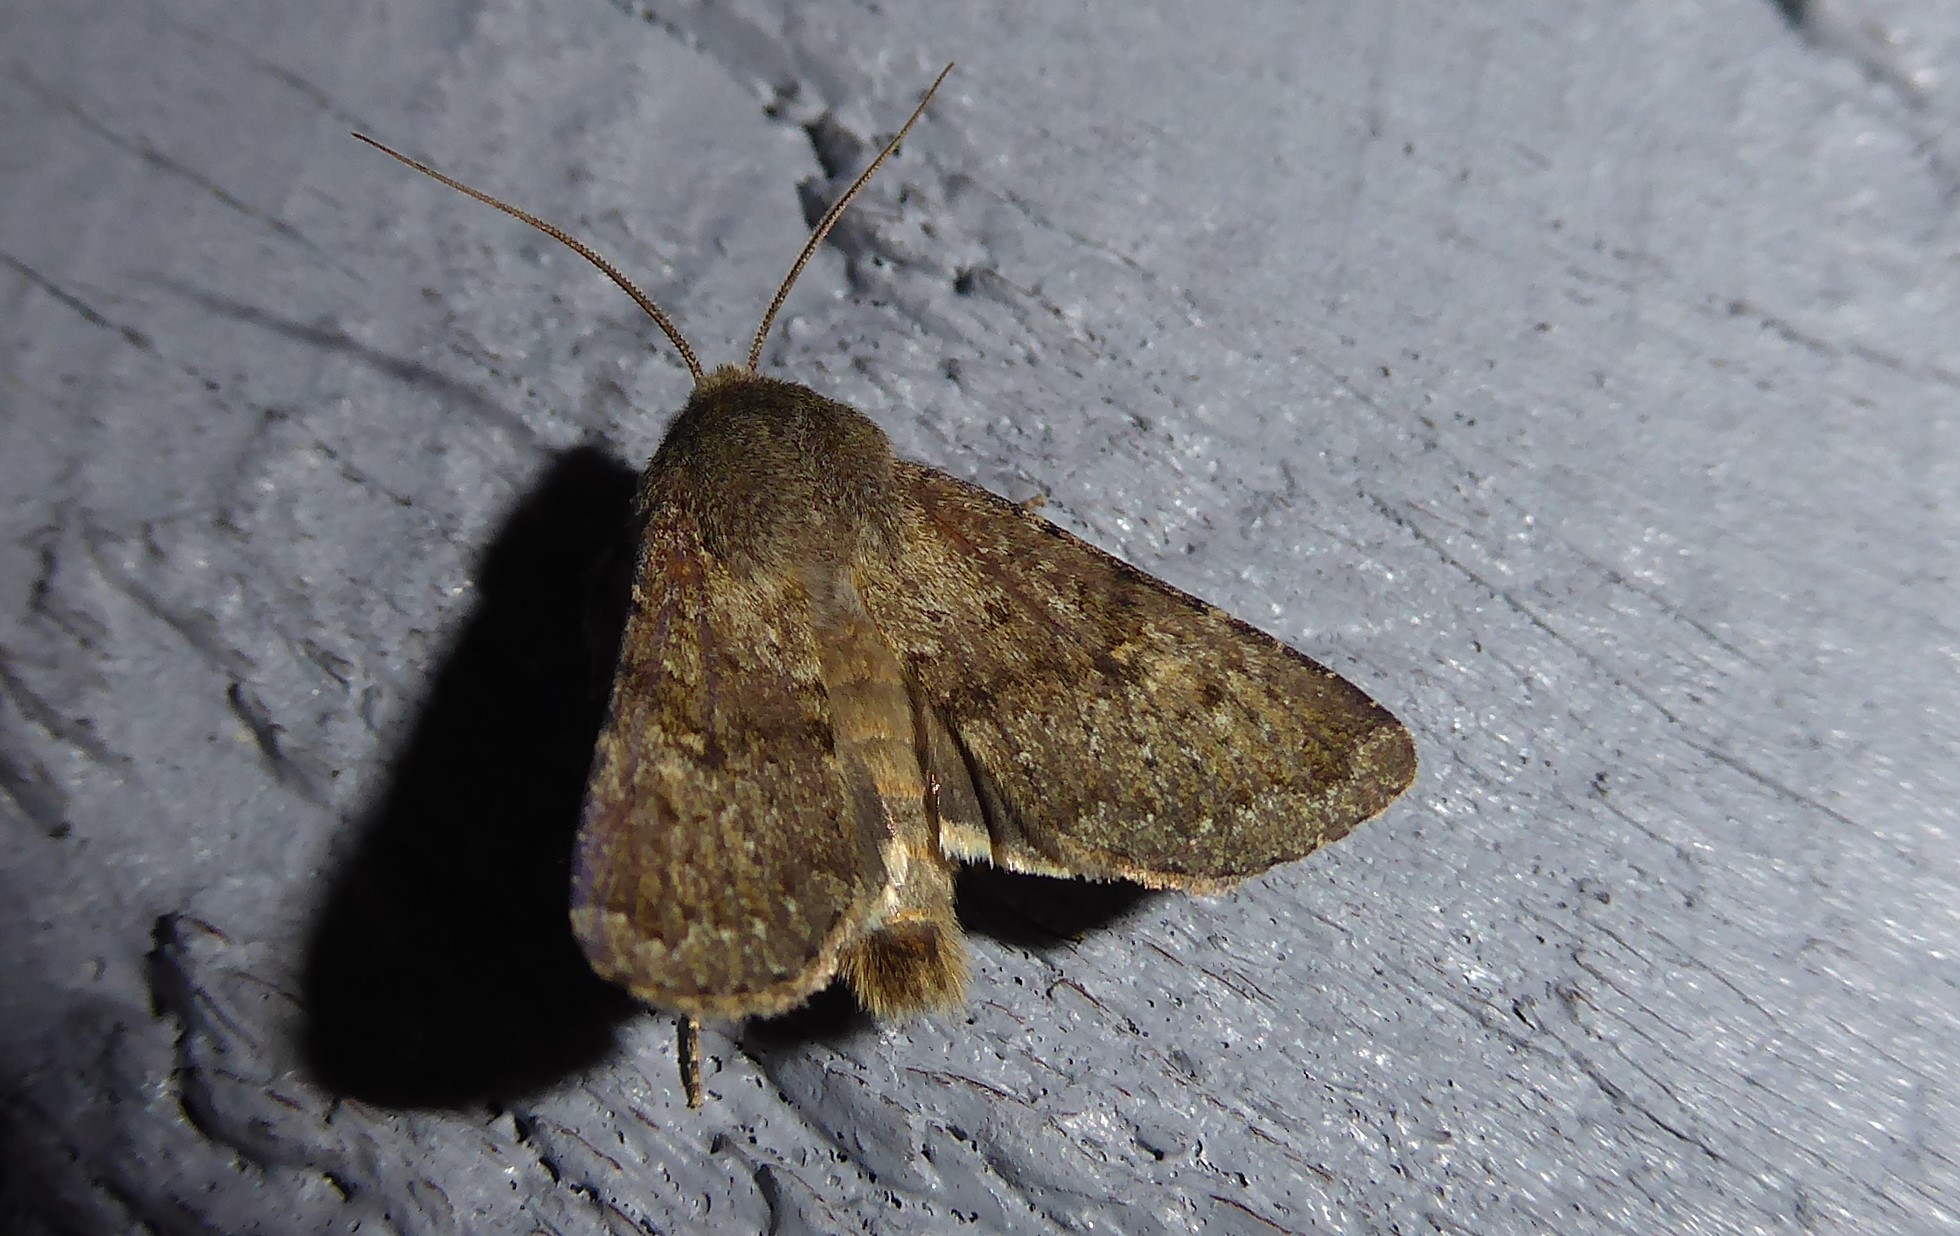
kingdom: Animalia
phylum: Arthropoda
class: Insecta
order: Lepidoptera
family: Noctuidae
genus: Ichneutica
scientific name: Ichneutica moderata
